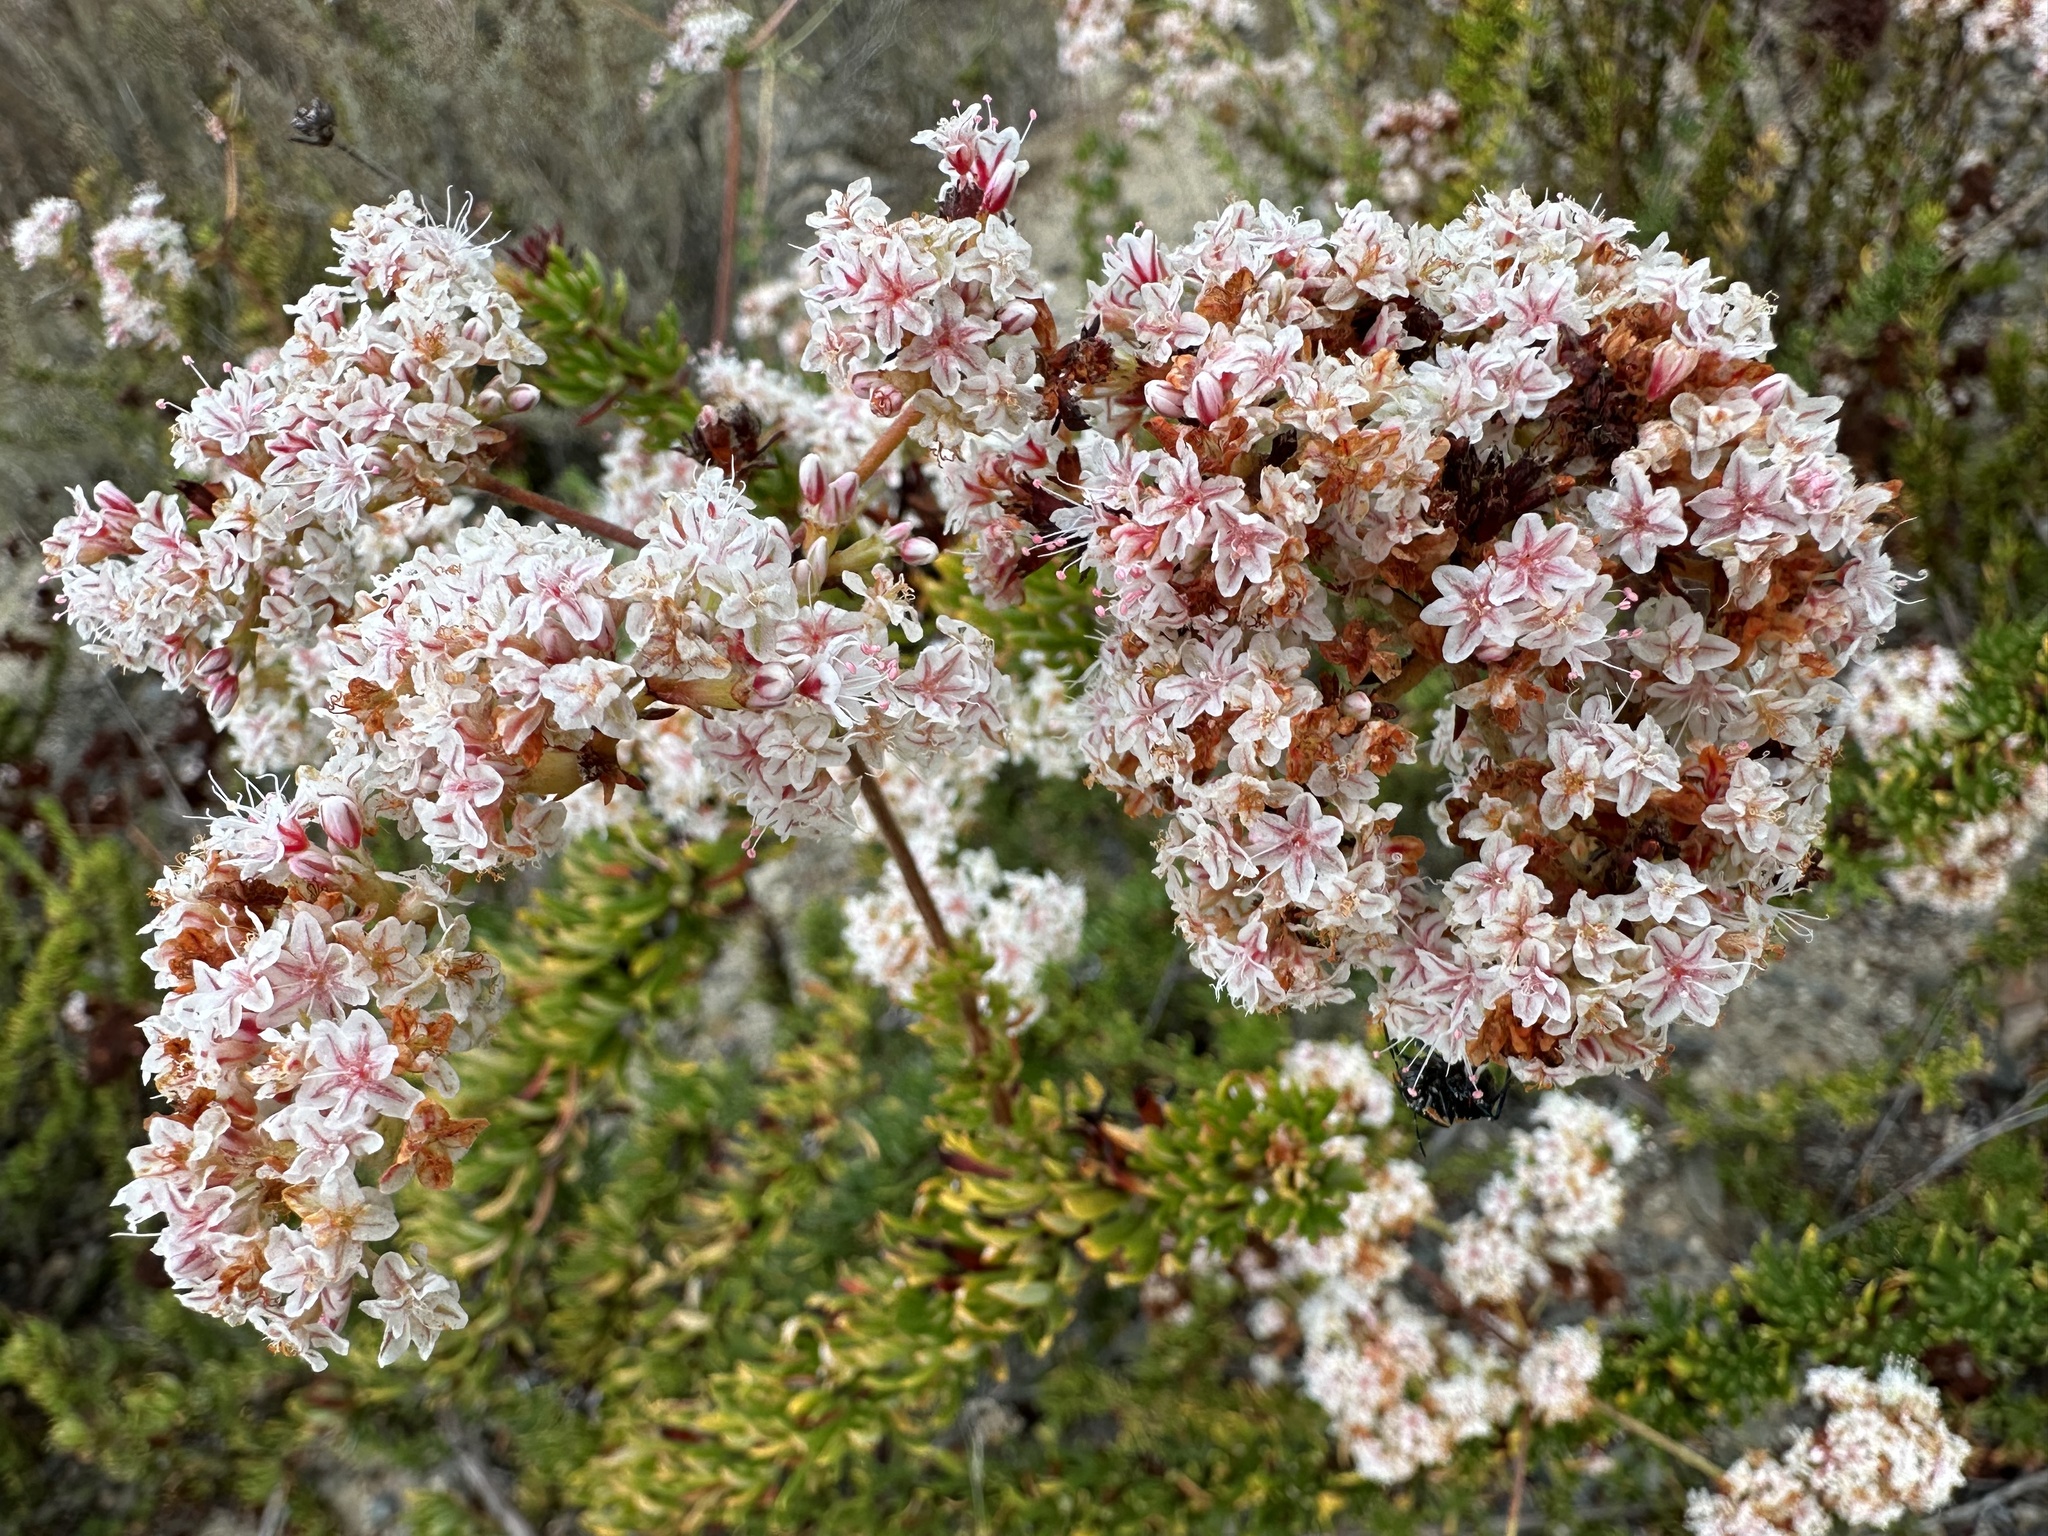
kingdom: Plantae
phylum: Tracheophyta
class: Magnoliopsida
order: Caryophyllales
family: Polygonaceae
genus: Eriogonum
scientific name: Eriogonum fasciculatum
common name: California wild buckwheat
